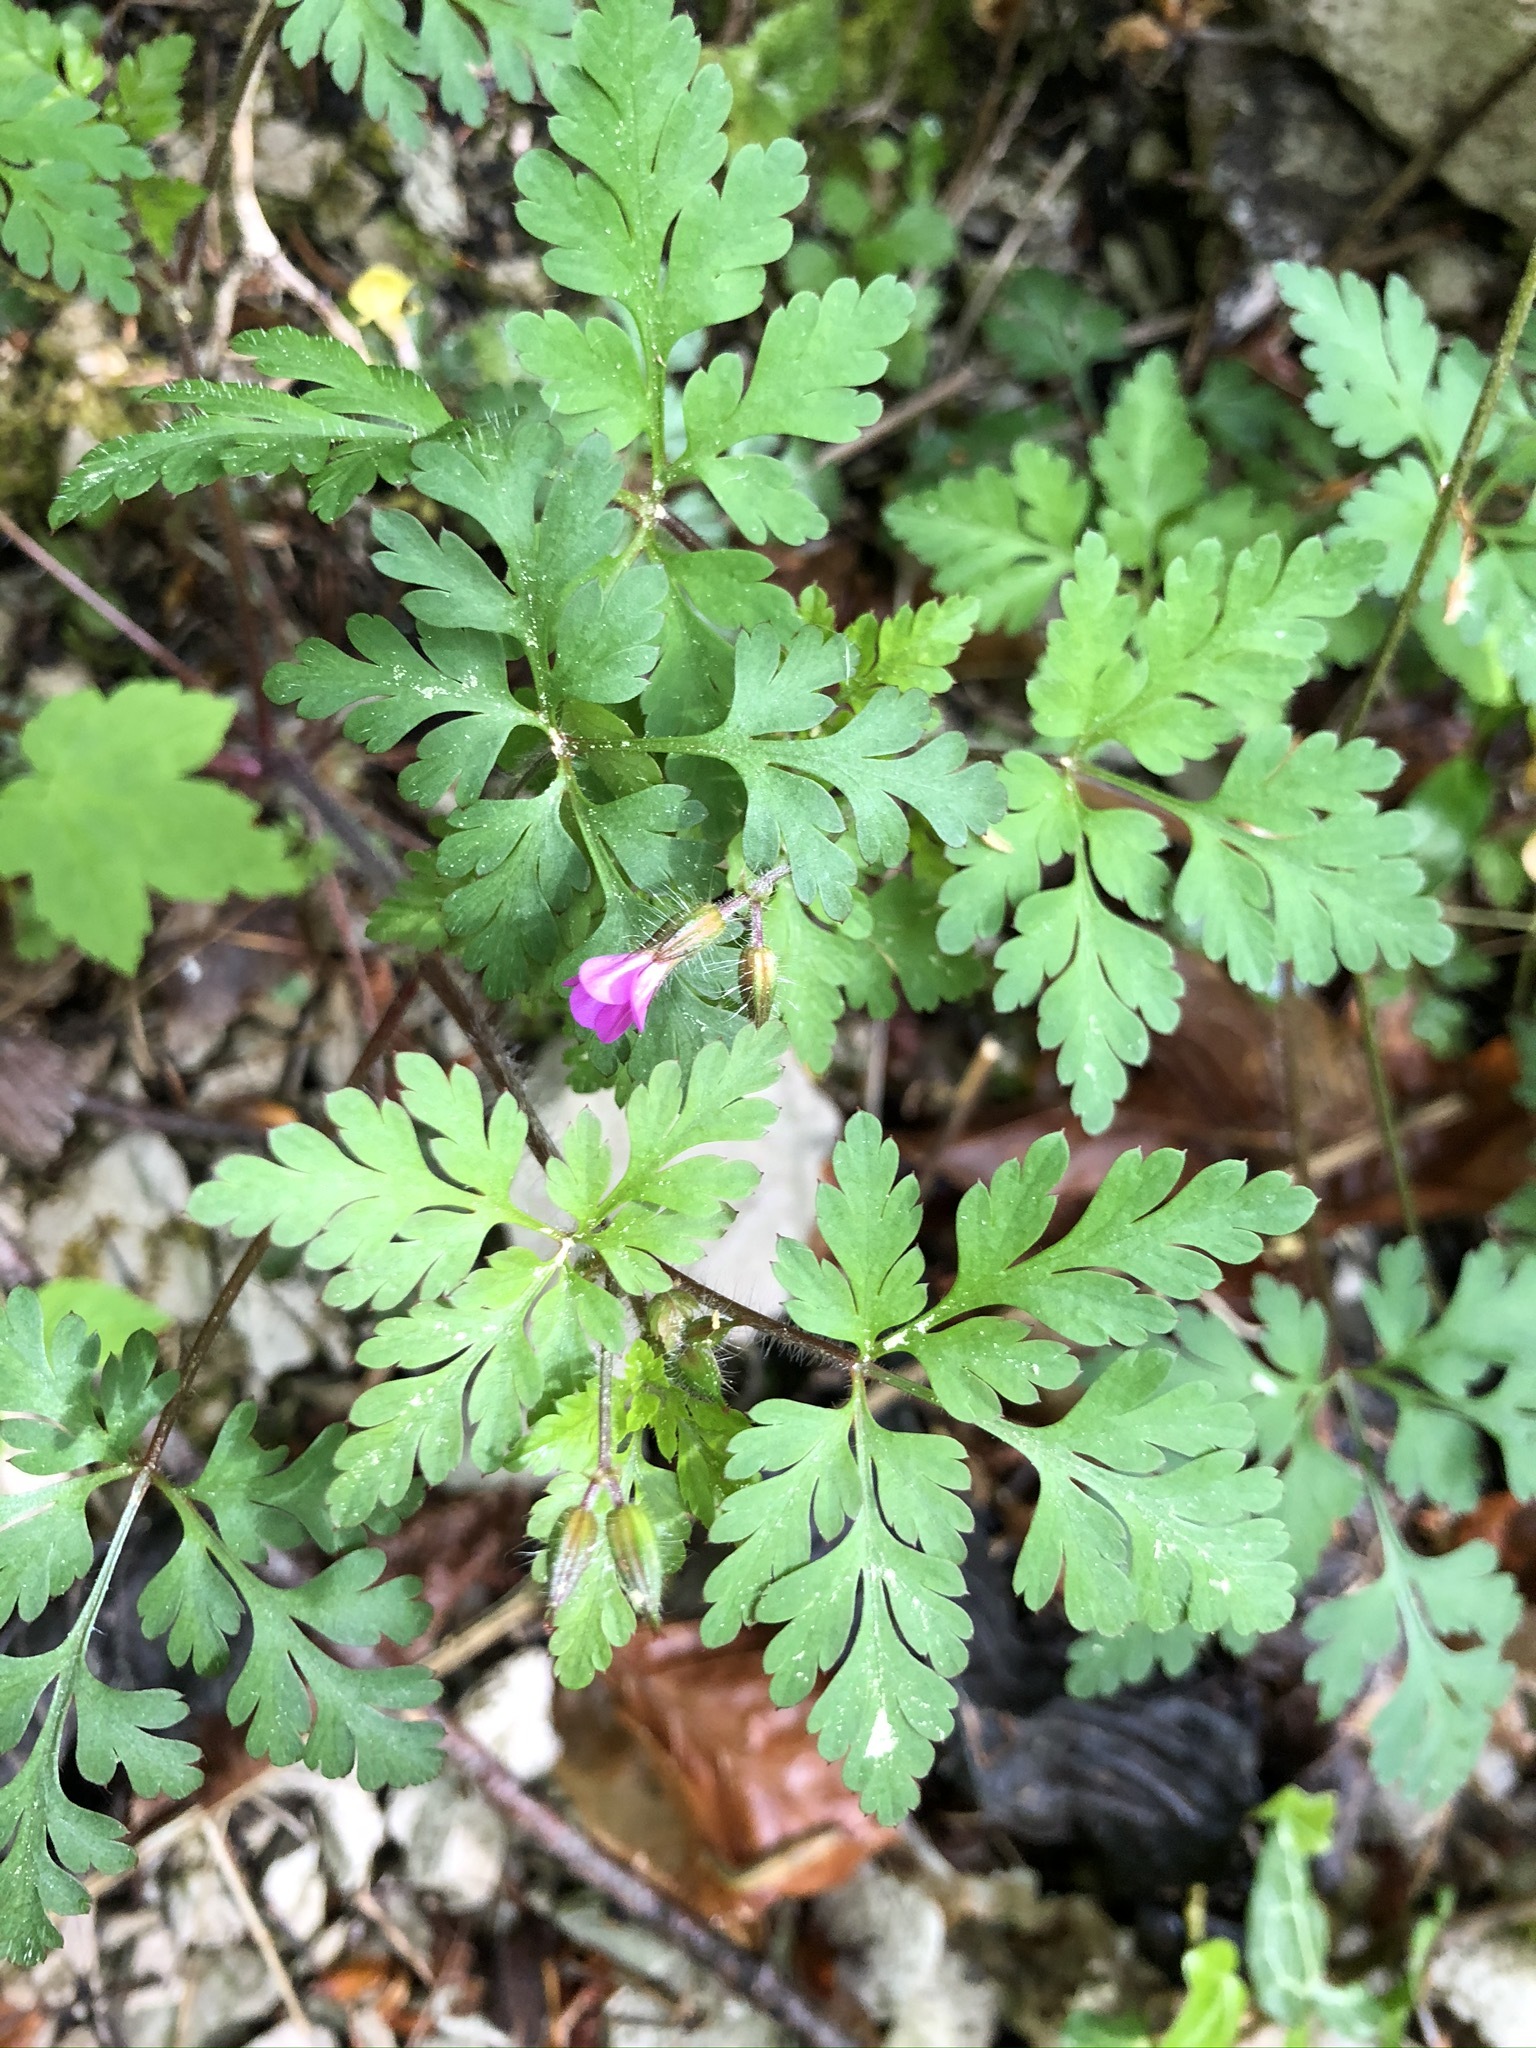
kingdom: Plantae
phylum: Tracheophyta
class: Magnoliopsida
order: Geraniales
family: Geraniaceae
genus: Geranium
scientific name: Geranium robertianum
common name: Herb-robert
